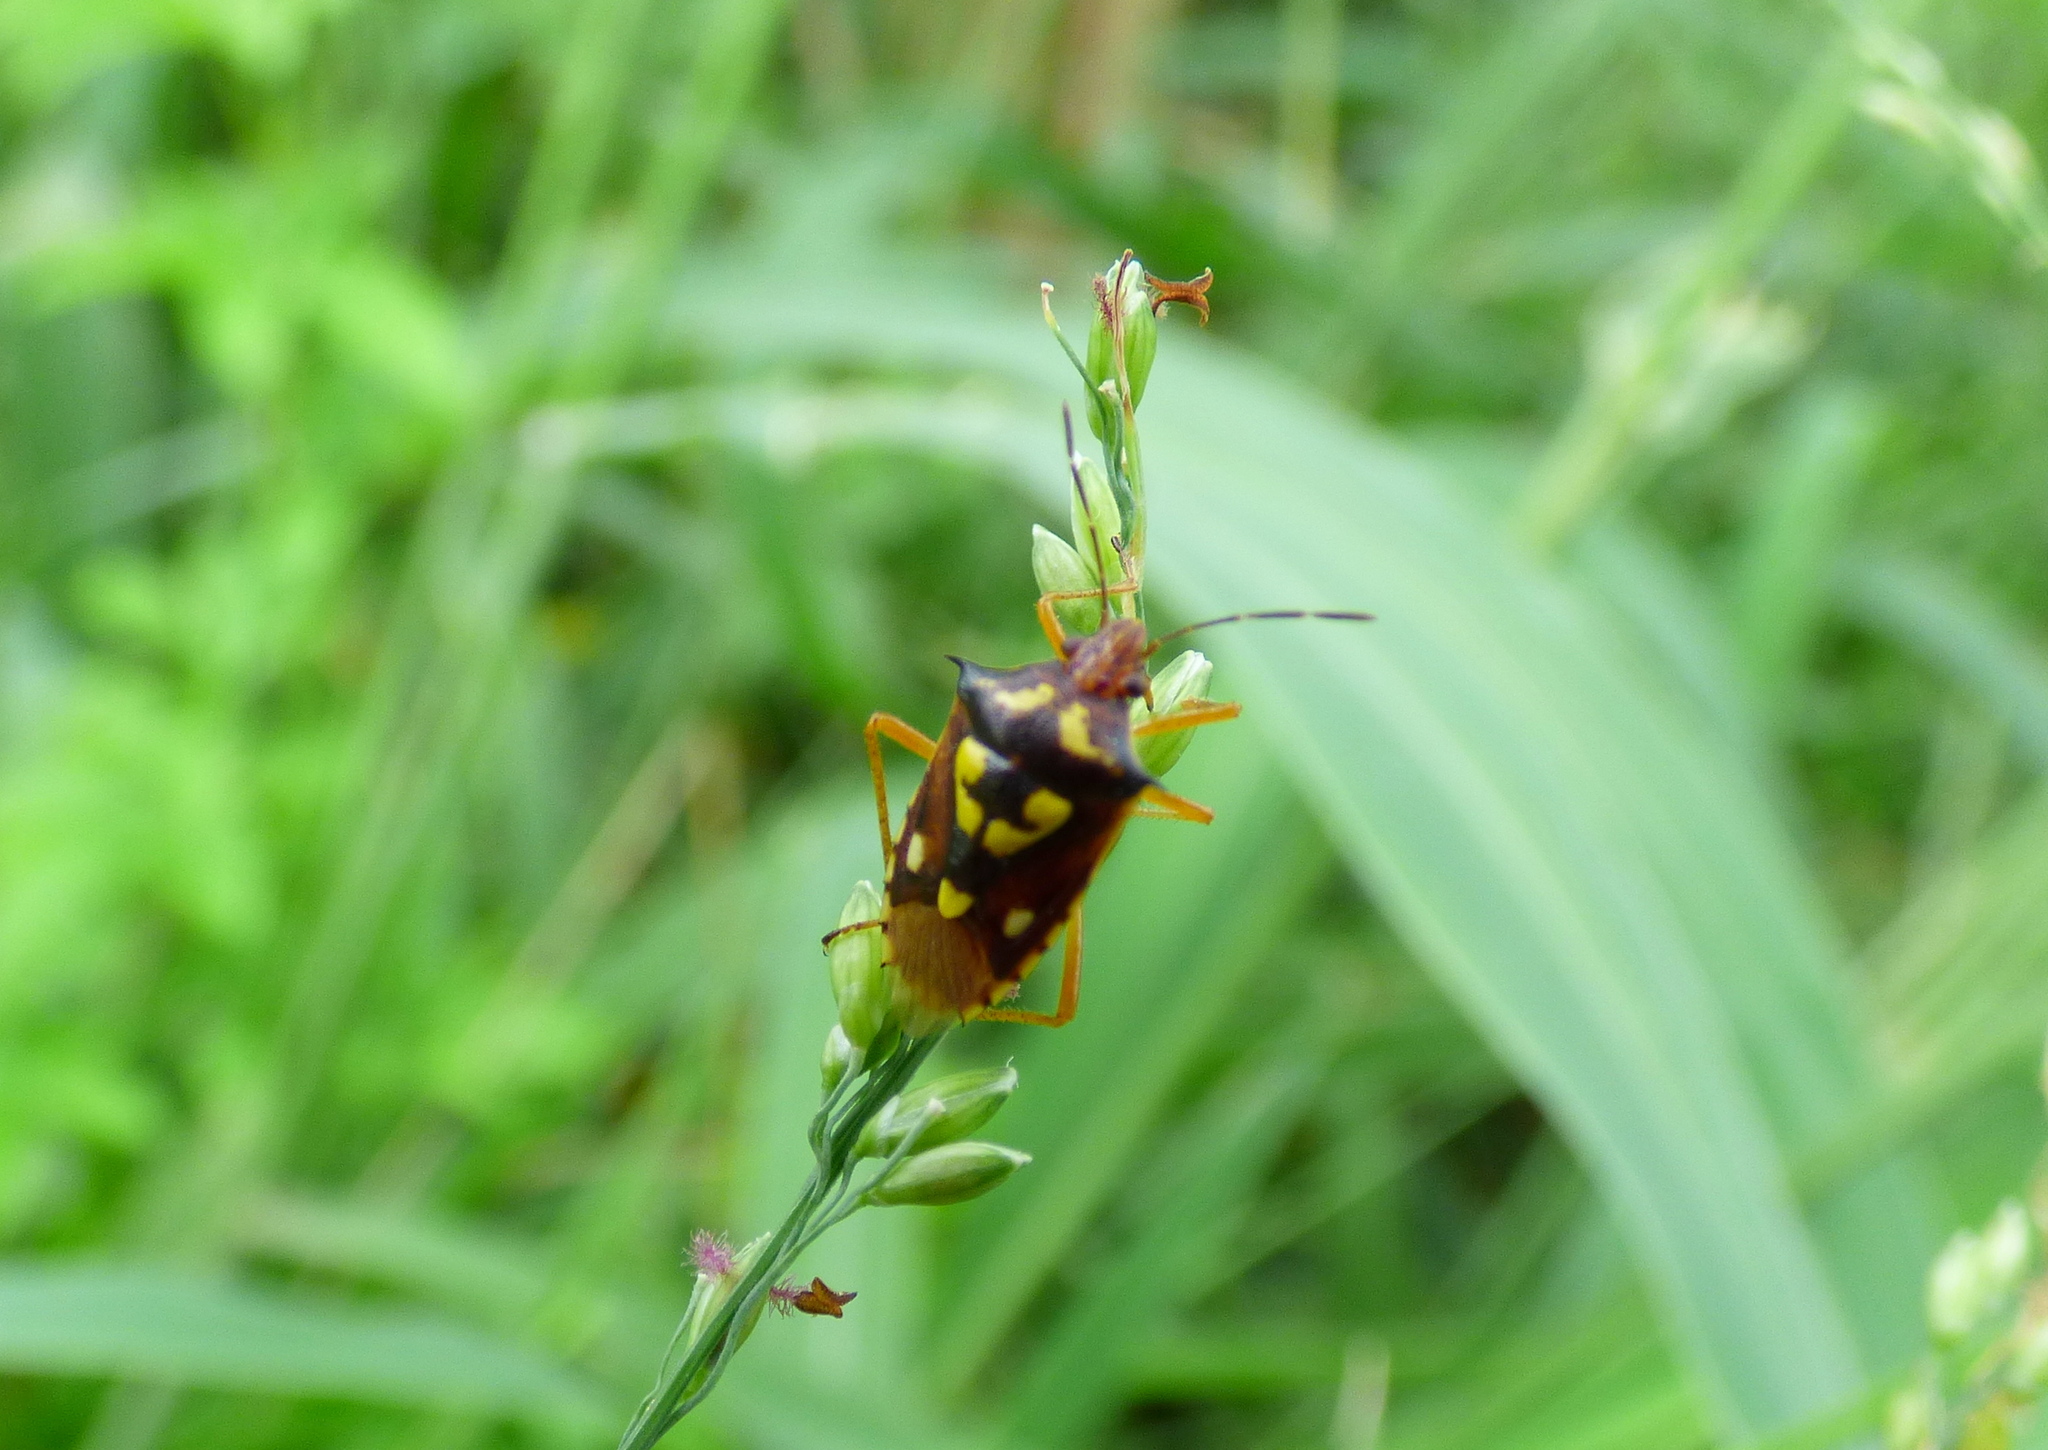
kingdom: Animalia
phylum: Arthropoda
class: Insecta
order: Hemiptera
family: Pentatomidae
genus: Oebalus
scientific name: Oebalus poecilus
